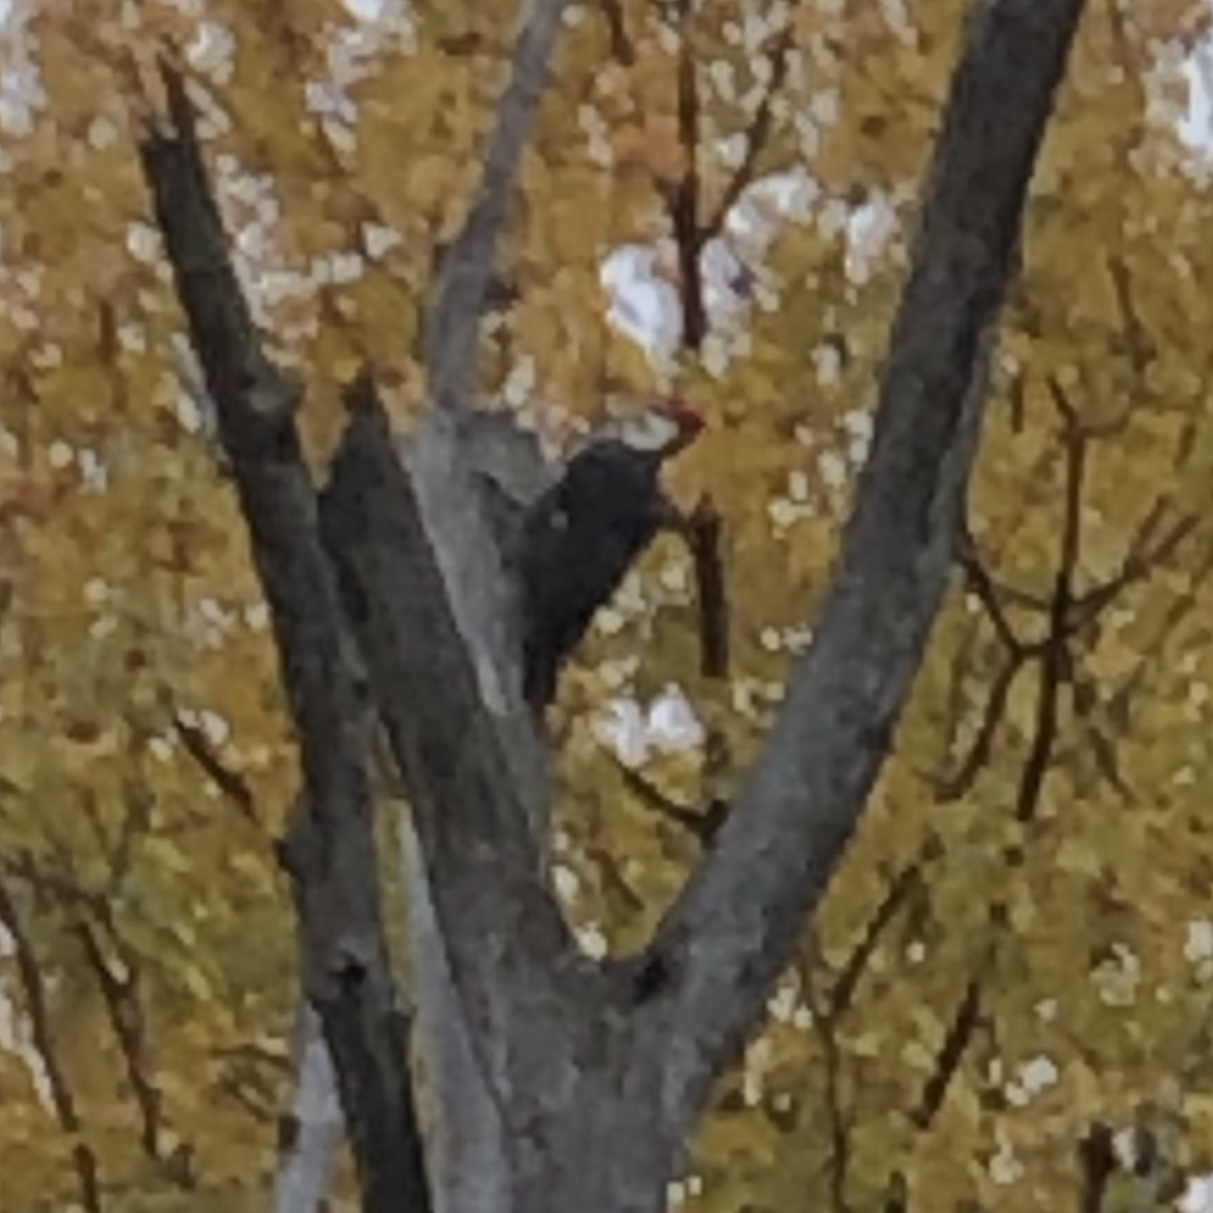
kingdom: Animalia
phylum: Chordata
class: Aves
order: Piciformes
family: Picidae
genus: Dryocopus
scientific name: Dryocopus pileatus
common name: Pileated woodpecker
